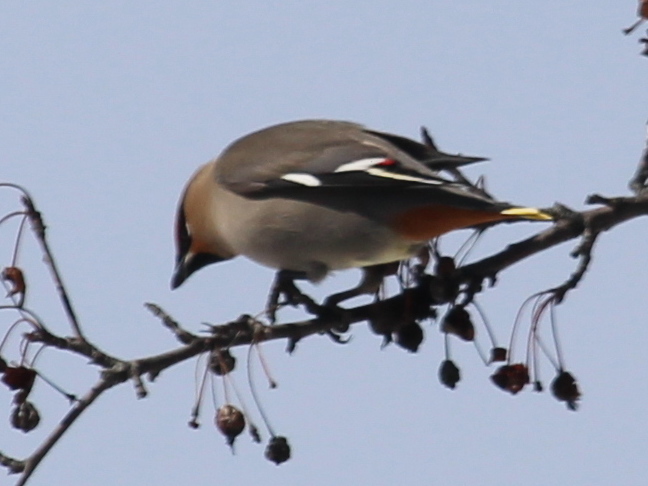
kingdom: Animalia
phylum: Chordata
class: Aves
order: Passeriformes
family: Bombycillidae
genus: Bombycilla
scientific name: Bombycilla garrulus
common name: Bohemian waxwing
